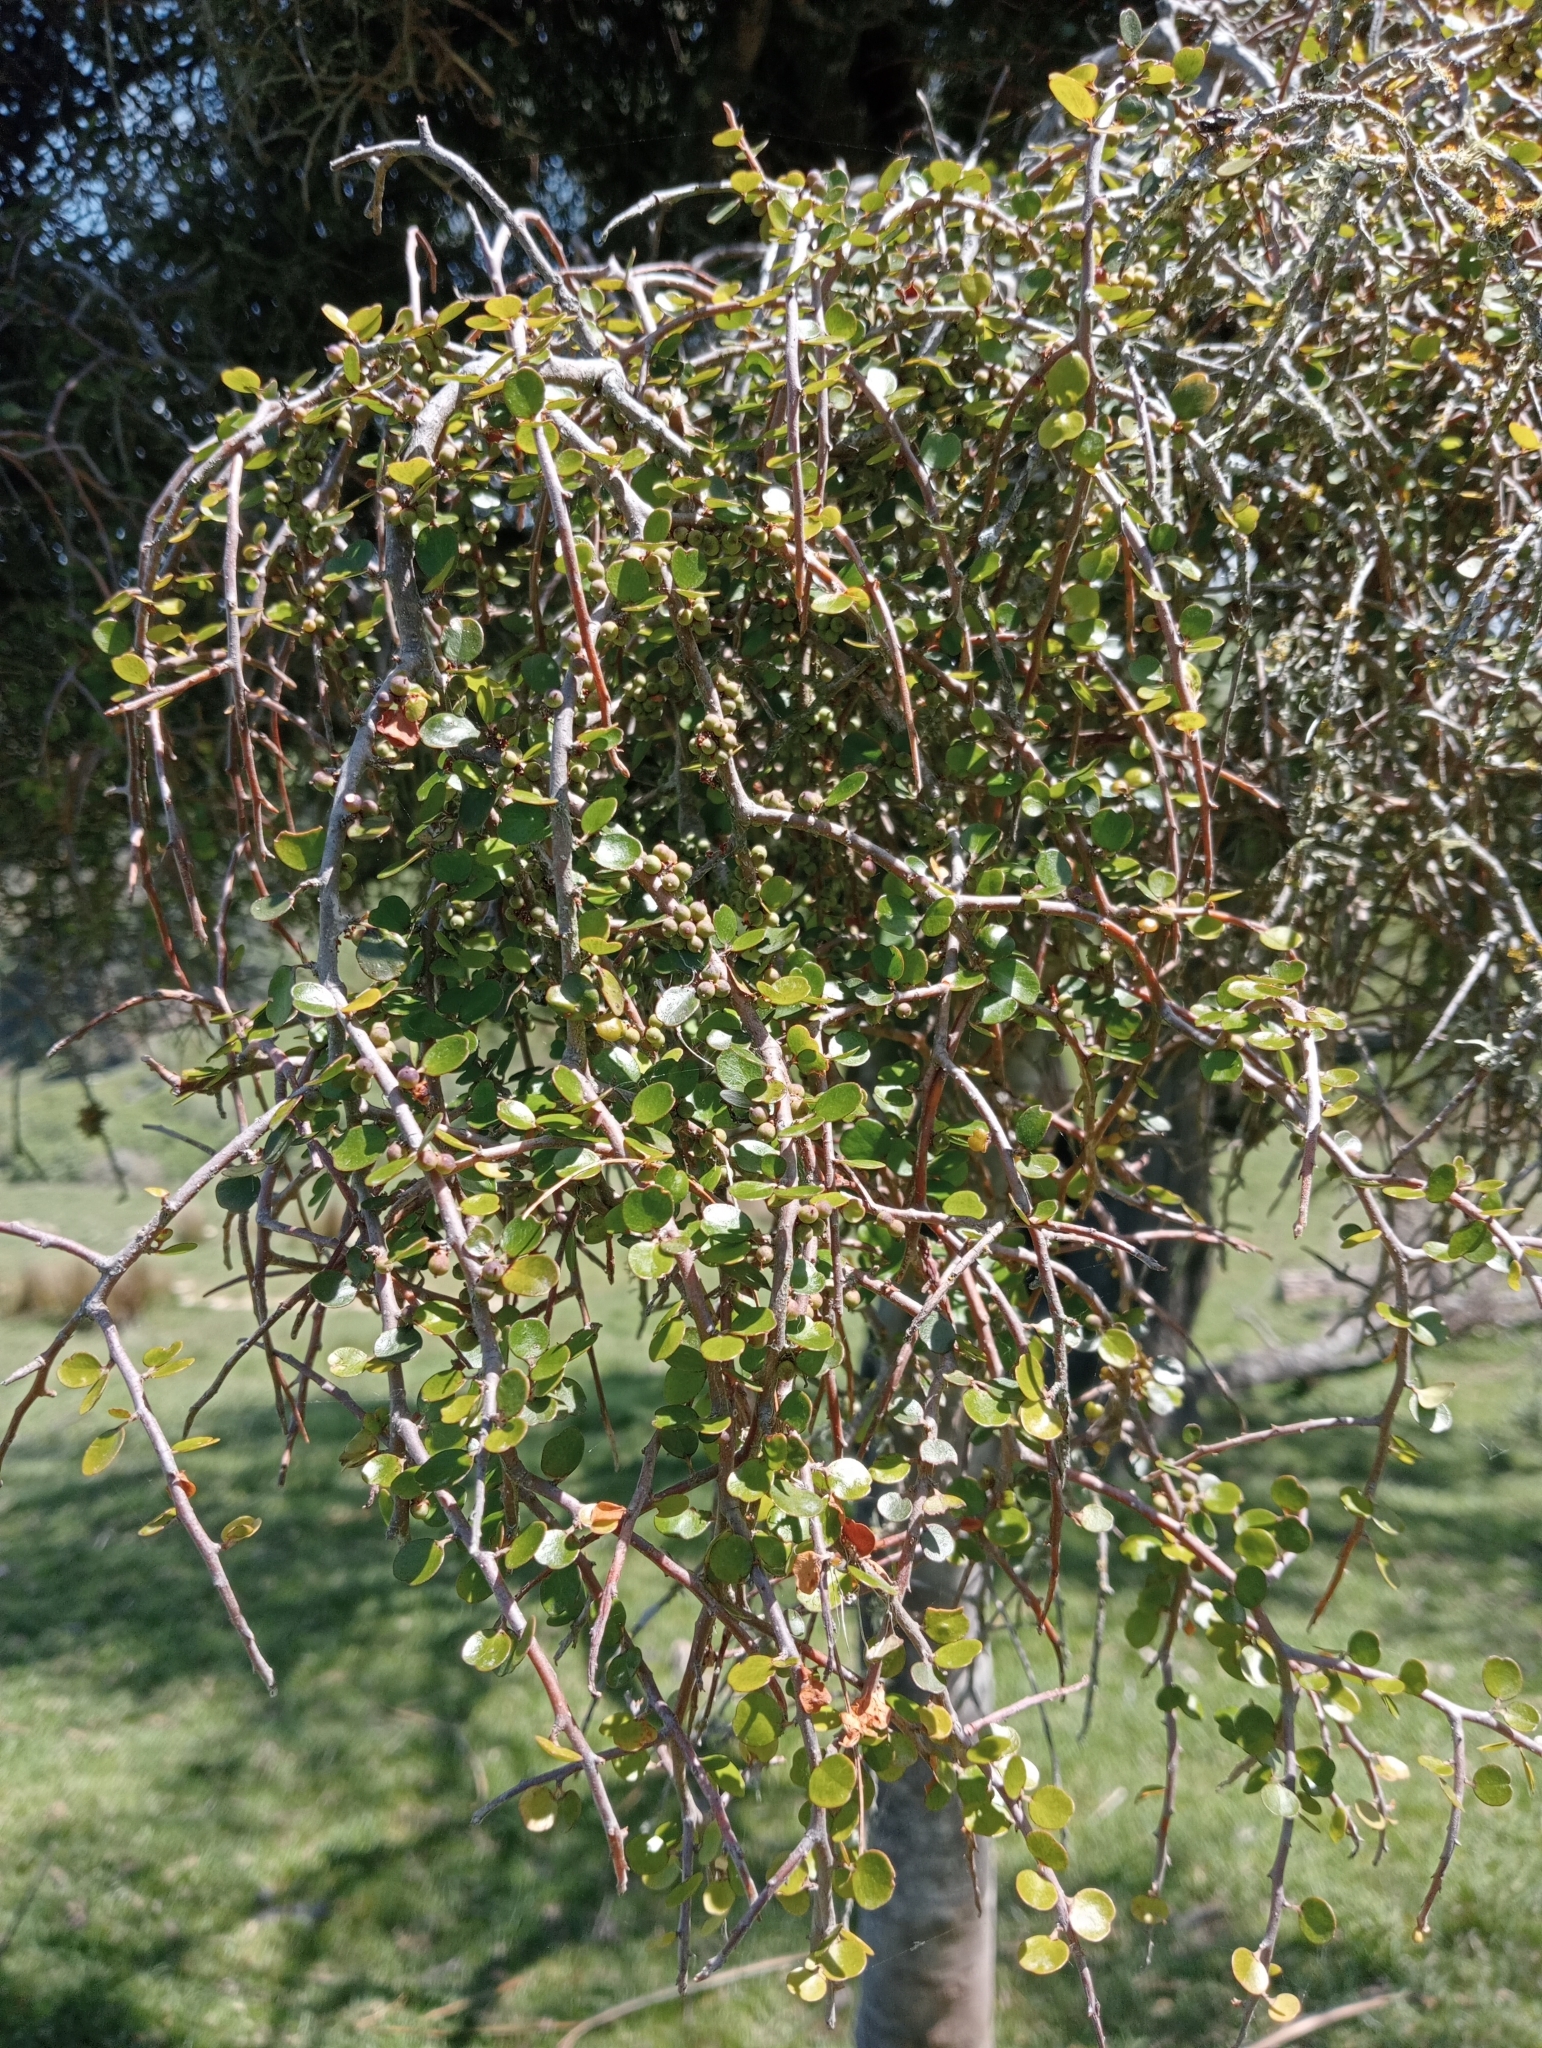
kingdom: Plantae
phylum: Tracheophyta
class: Magnoliopsida
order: Ericales
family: Primulaceae
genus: Myrsine
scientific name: Myrsine divaricata
